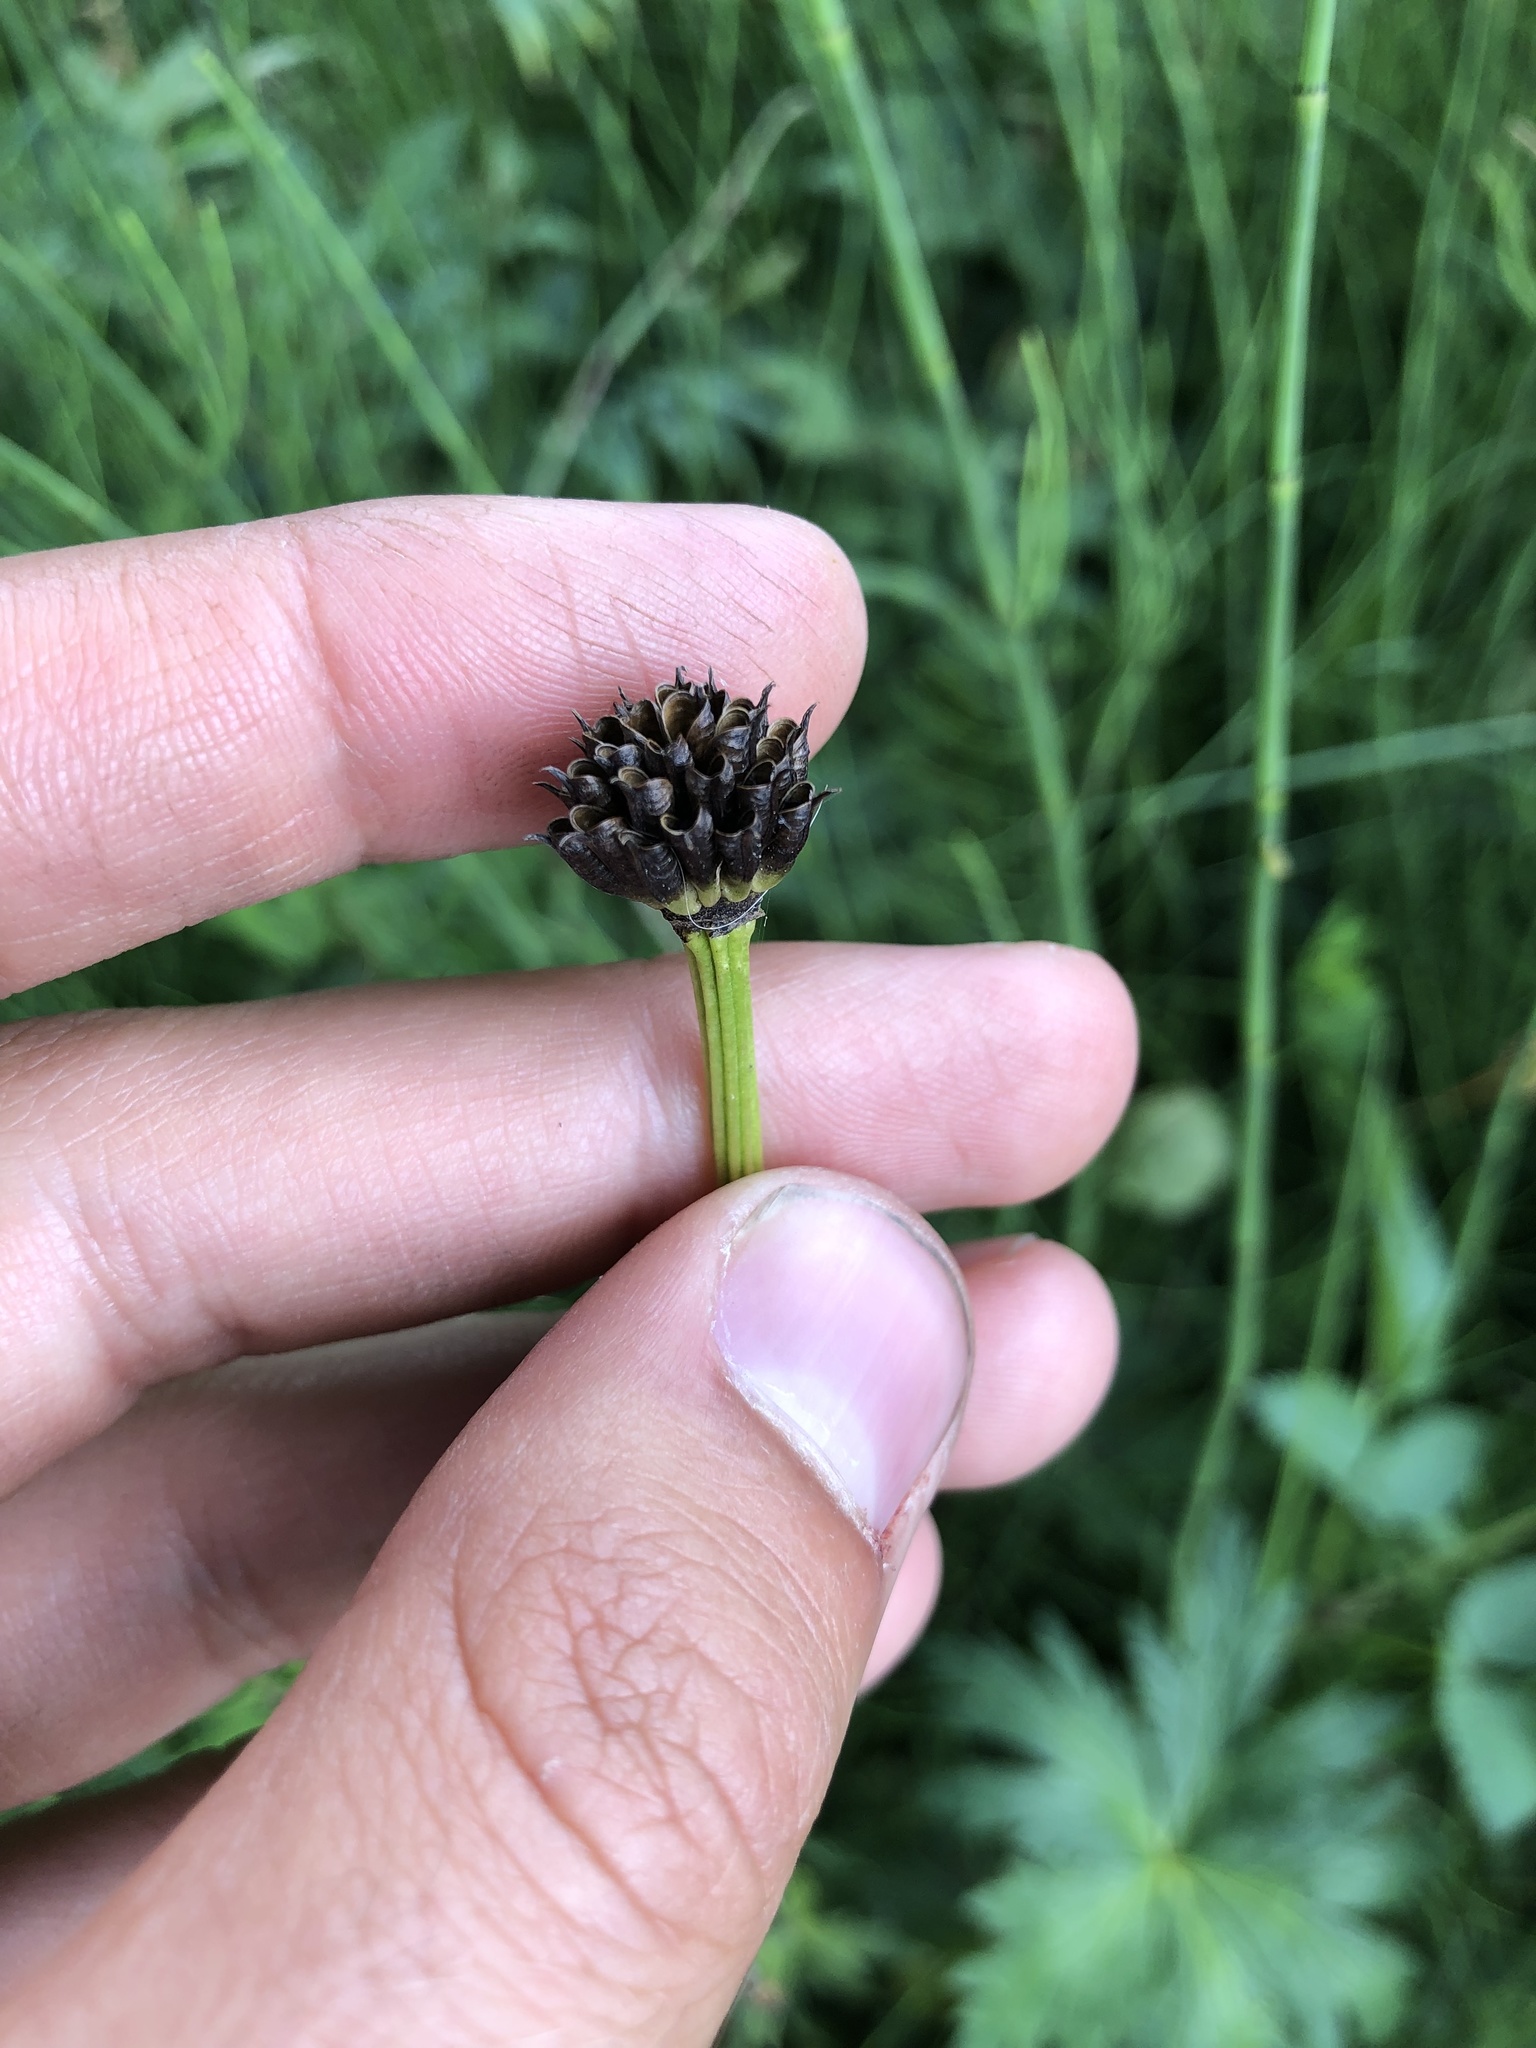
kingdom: Plantae
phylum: Tracheophyta
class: Magnoliopsida
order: Ranunculales
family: Ranunculaceae
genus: Trollius
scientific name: Trollius europaeus
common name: European globeflower
